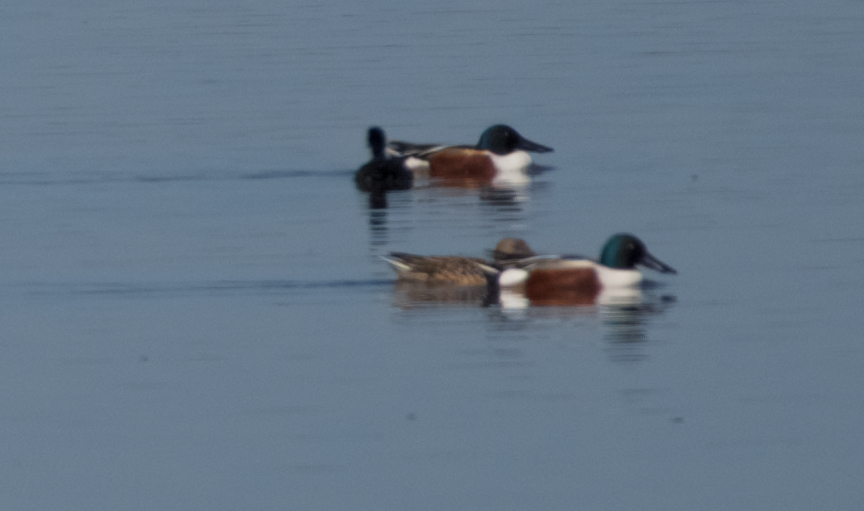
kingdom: Animalia
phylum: Chordata
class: Aves
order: Anseriformes
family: Anatidae
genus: Spatula
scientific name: Spatula clypeata
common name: Northern shoveler
